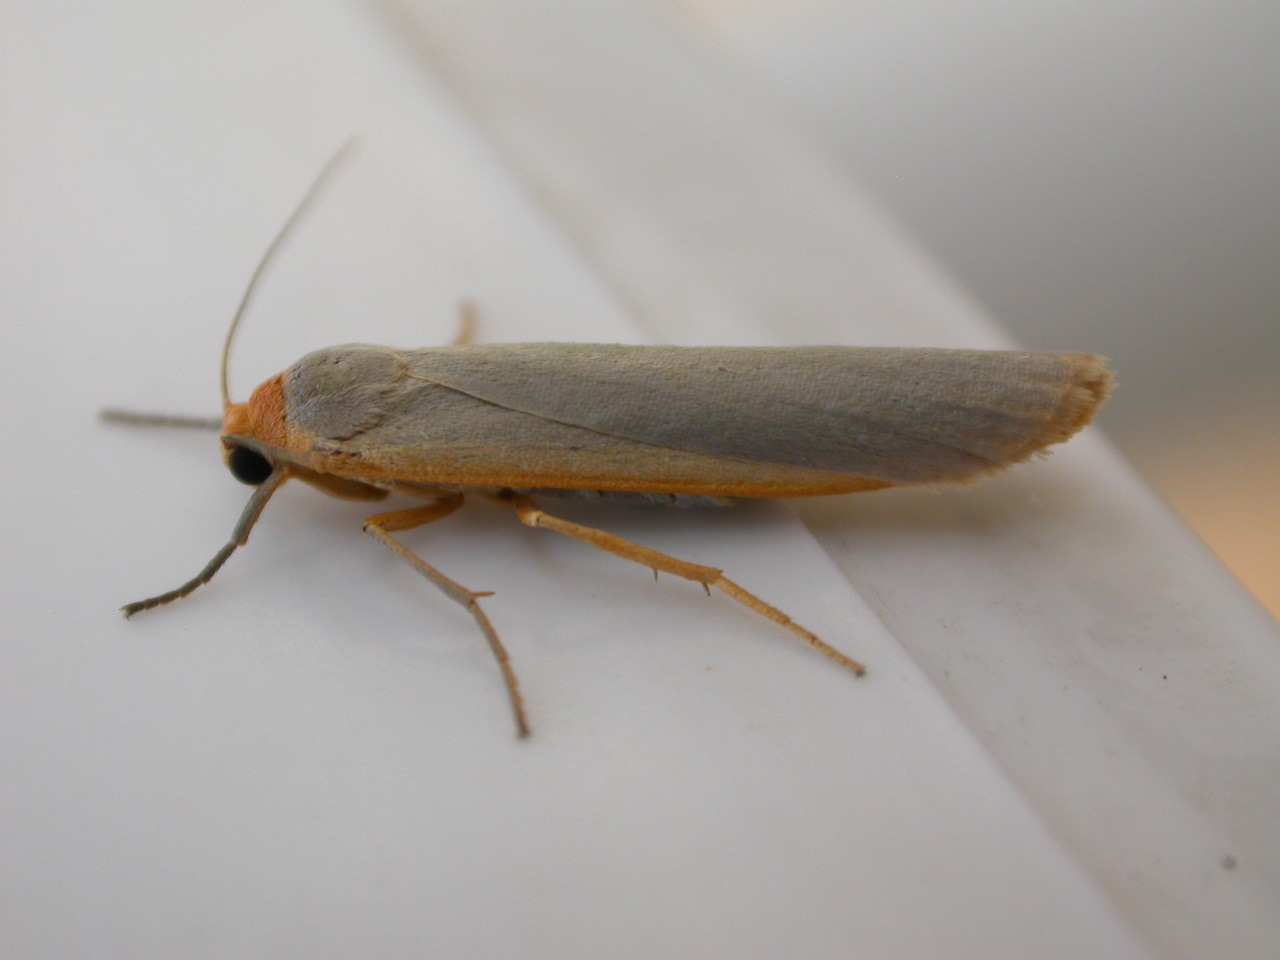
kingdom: Animalia
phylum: Arthropoda
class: Insecta
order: Lepidoptera
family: Erebidae
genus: Manulea
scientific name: Manulea complana
